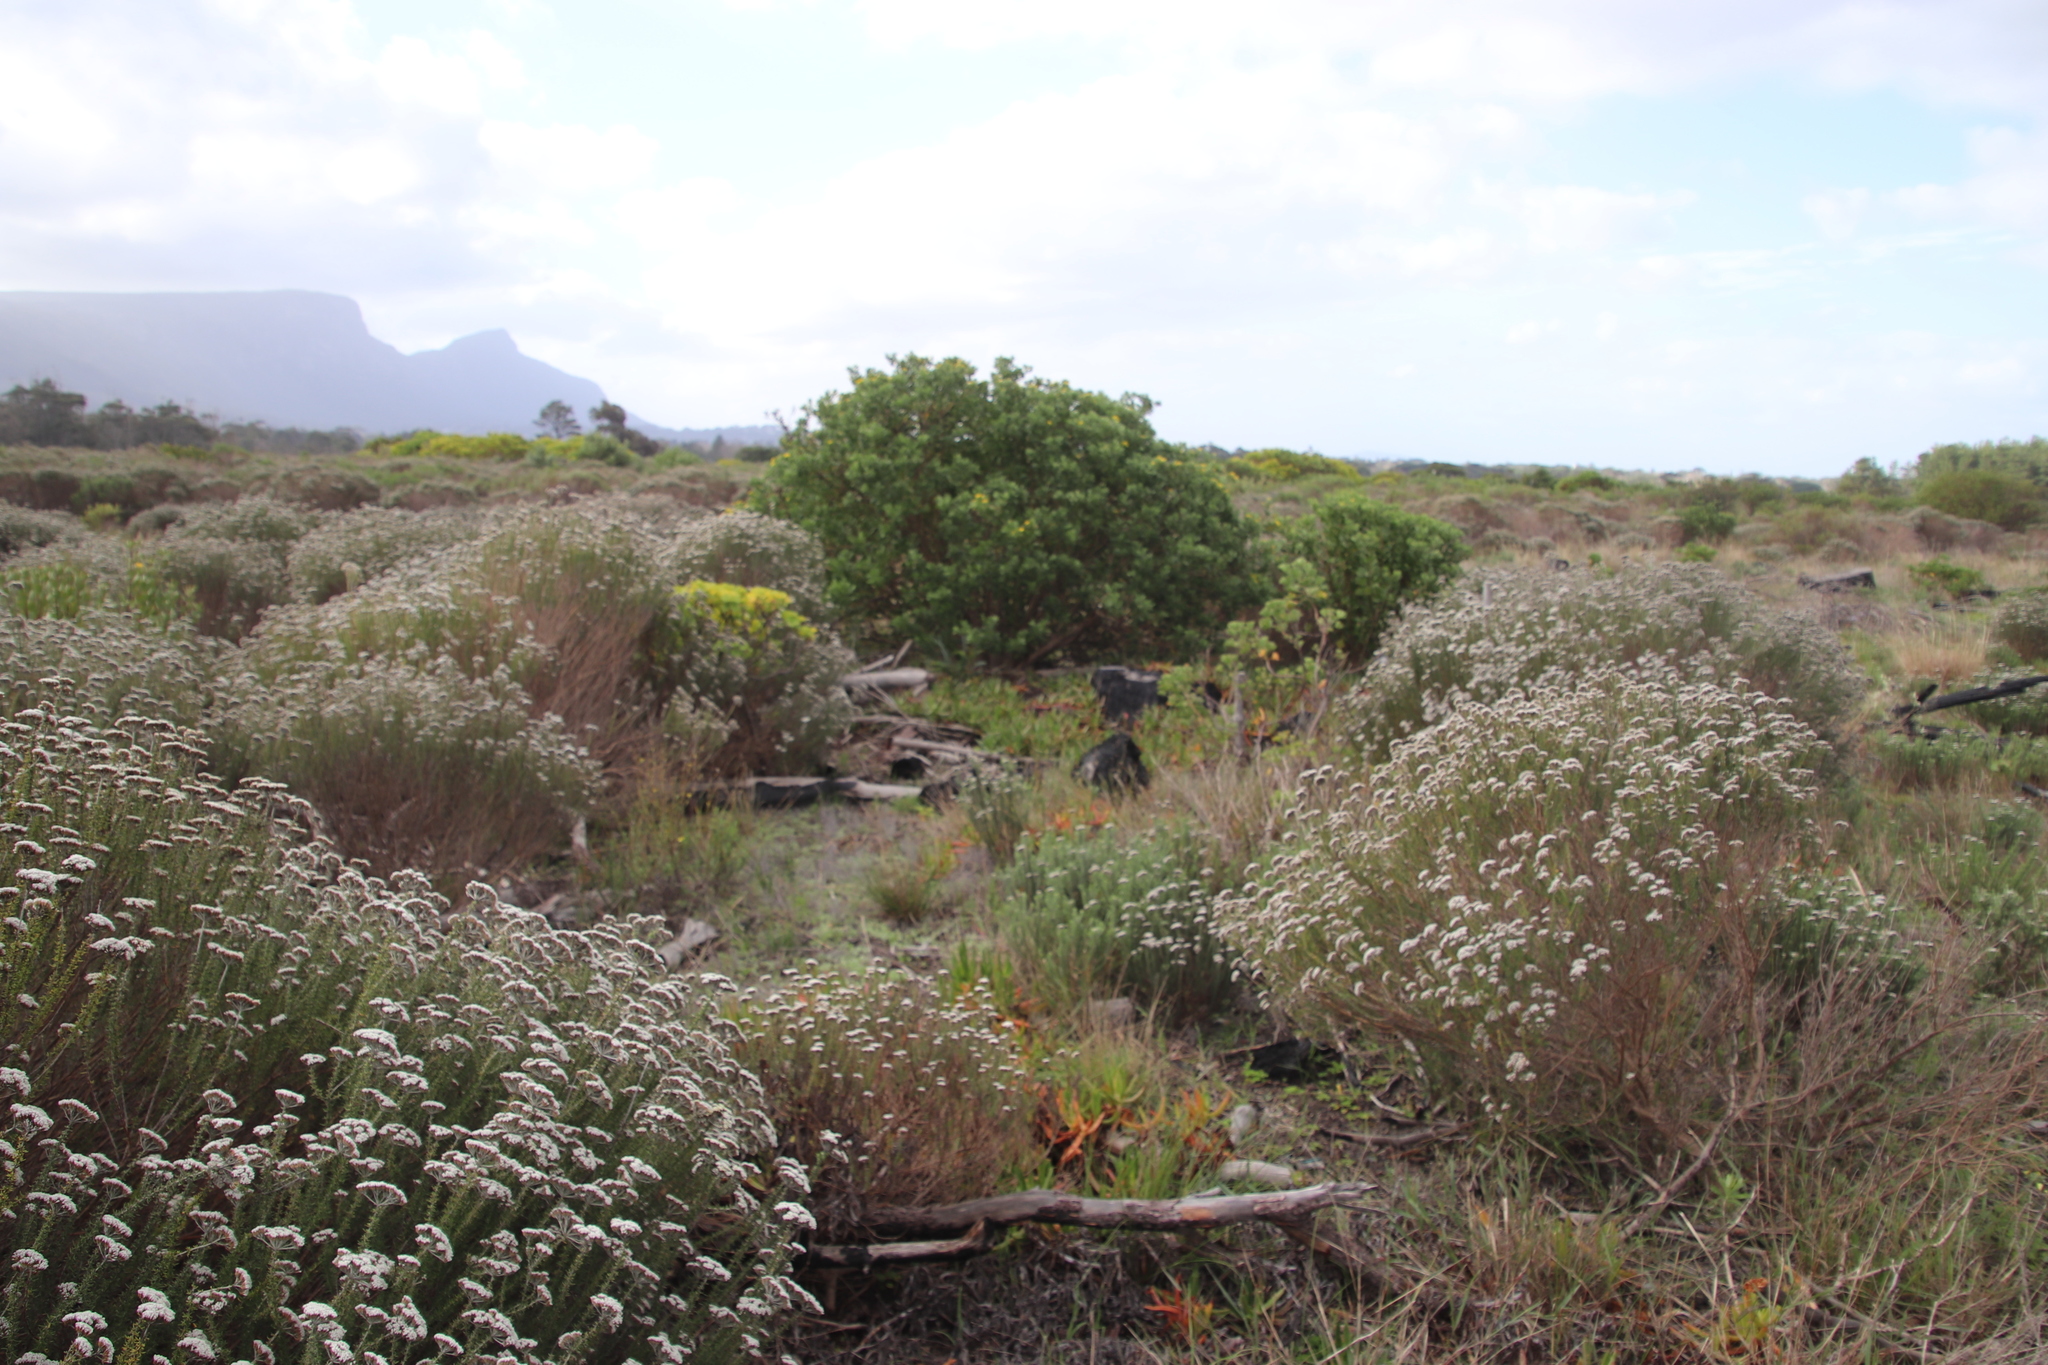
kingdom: Plantae
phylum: Tracheophyta
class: Magnoliopsida
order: Asterales
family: Asteraceae
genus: Osteospermum
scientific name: Osteospermum moniliferum
